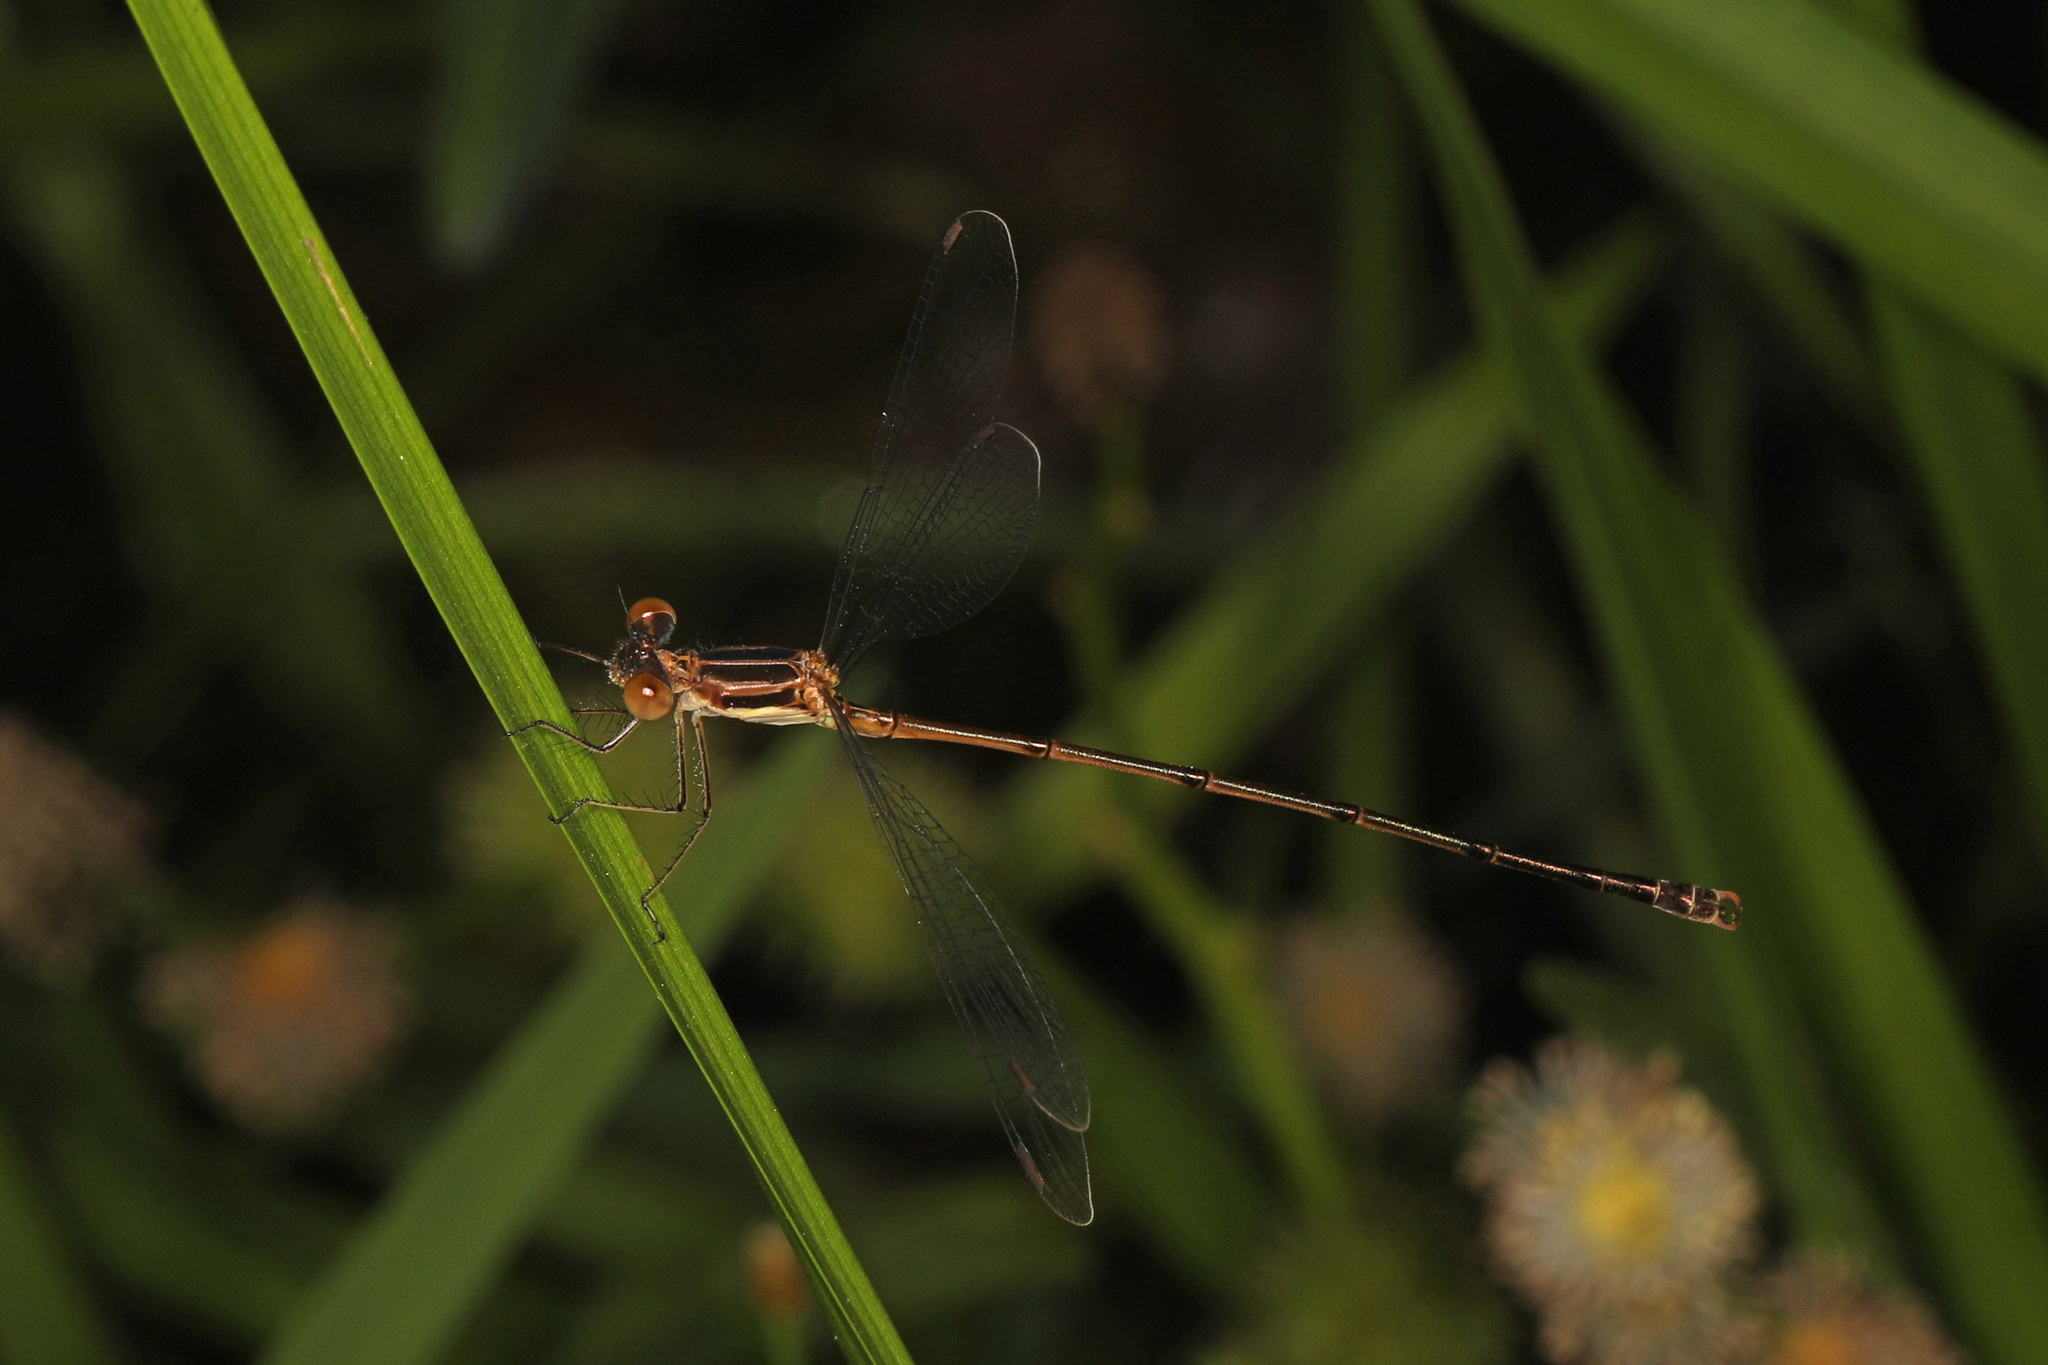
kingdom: Animalia
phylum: Arthropoda
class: Insecta
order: Odonata
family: Lestidae
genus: Lestes
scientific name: Lestes rectangularis
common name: Slender spreadwing
